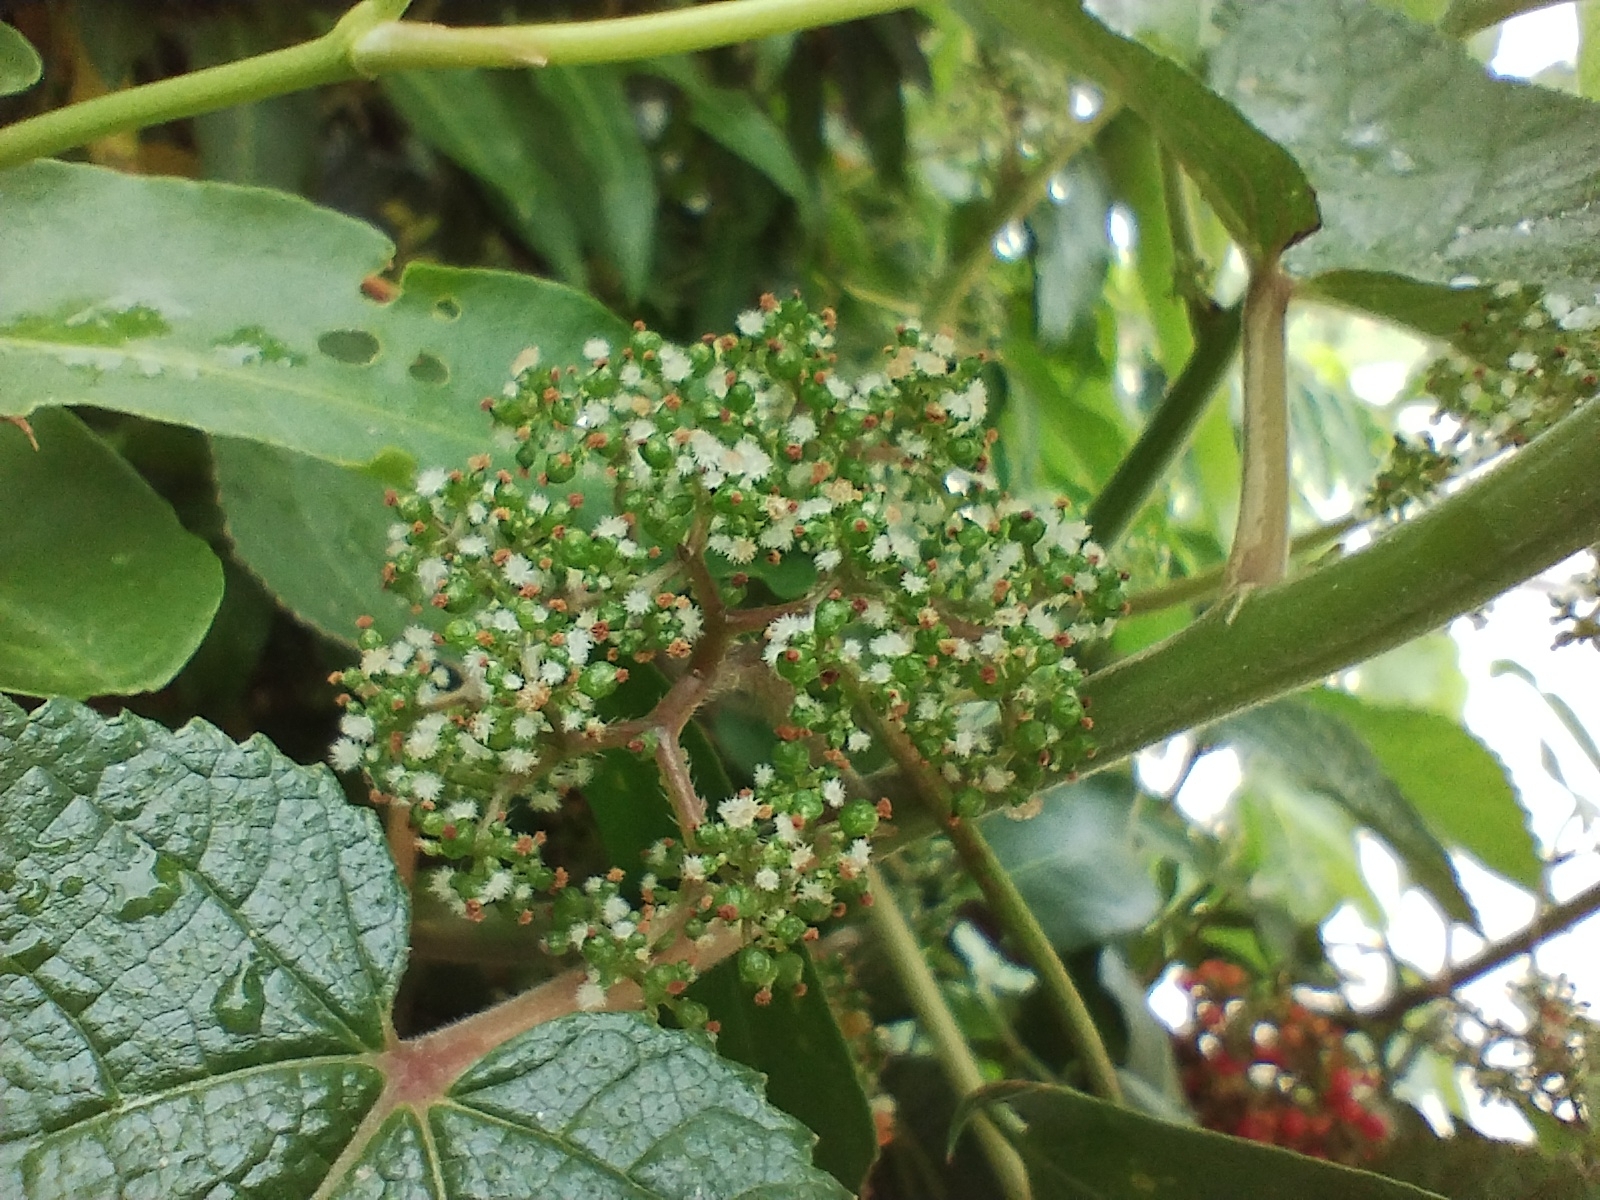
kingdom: Plantae
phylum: Tracheophyta
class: Magnoliopsida
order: Rosales
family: Urticaceae
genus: Urera
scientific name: Urera aurantiaca
